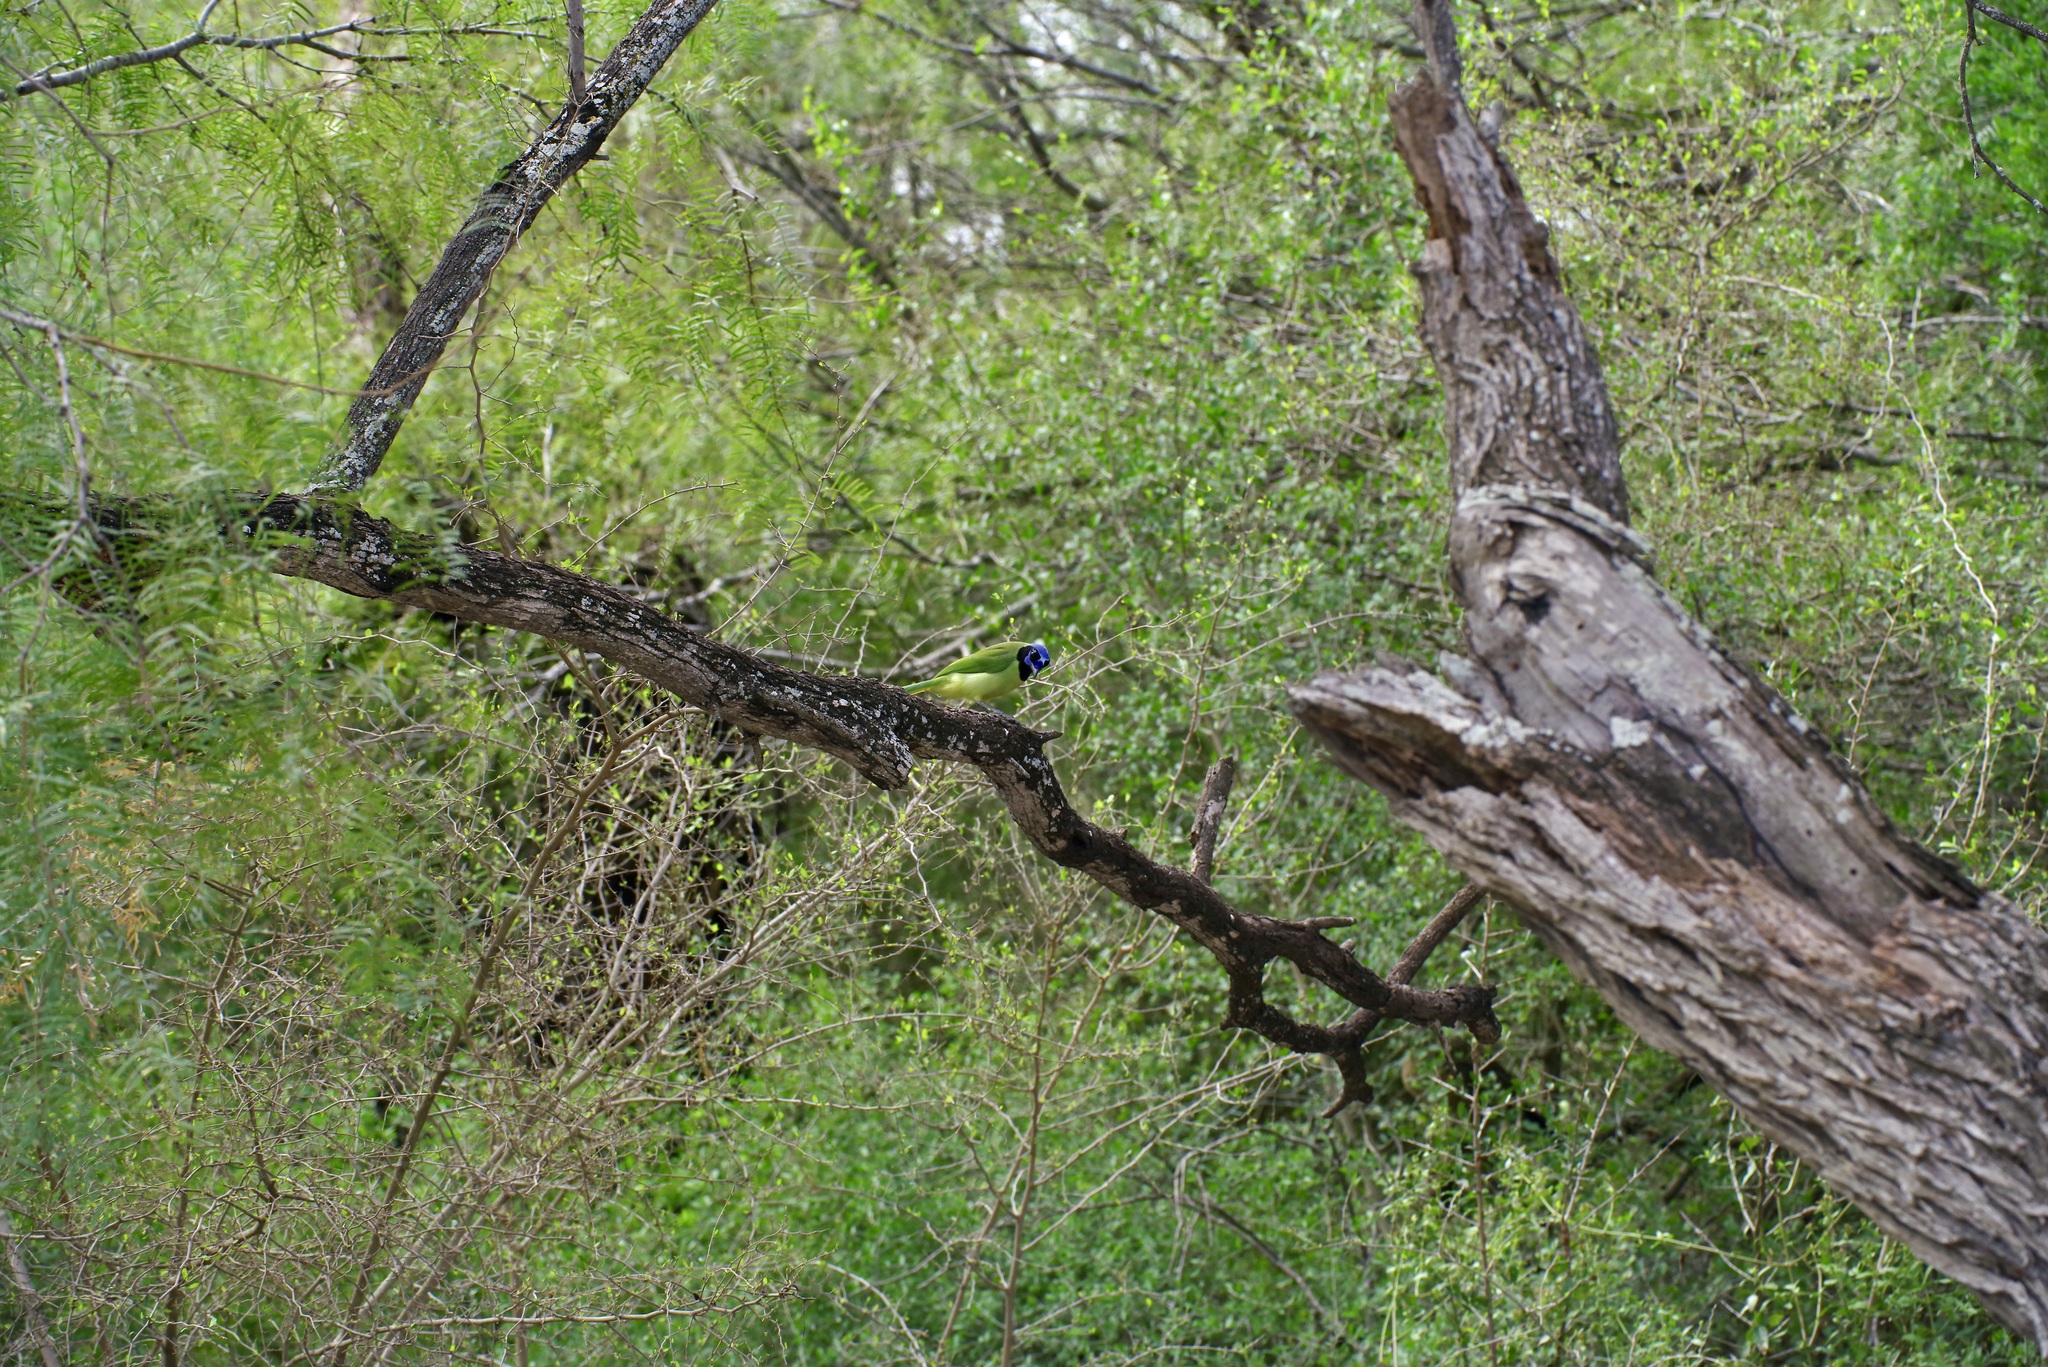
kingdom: Animalia
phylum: Chordata
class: Aves
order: Passeriformes
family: Corvidae
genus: Cyanocorax
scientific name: Cyanocorax yncas
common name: Green jay
